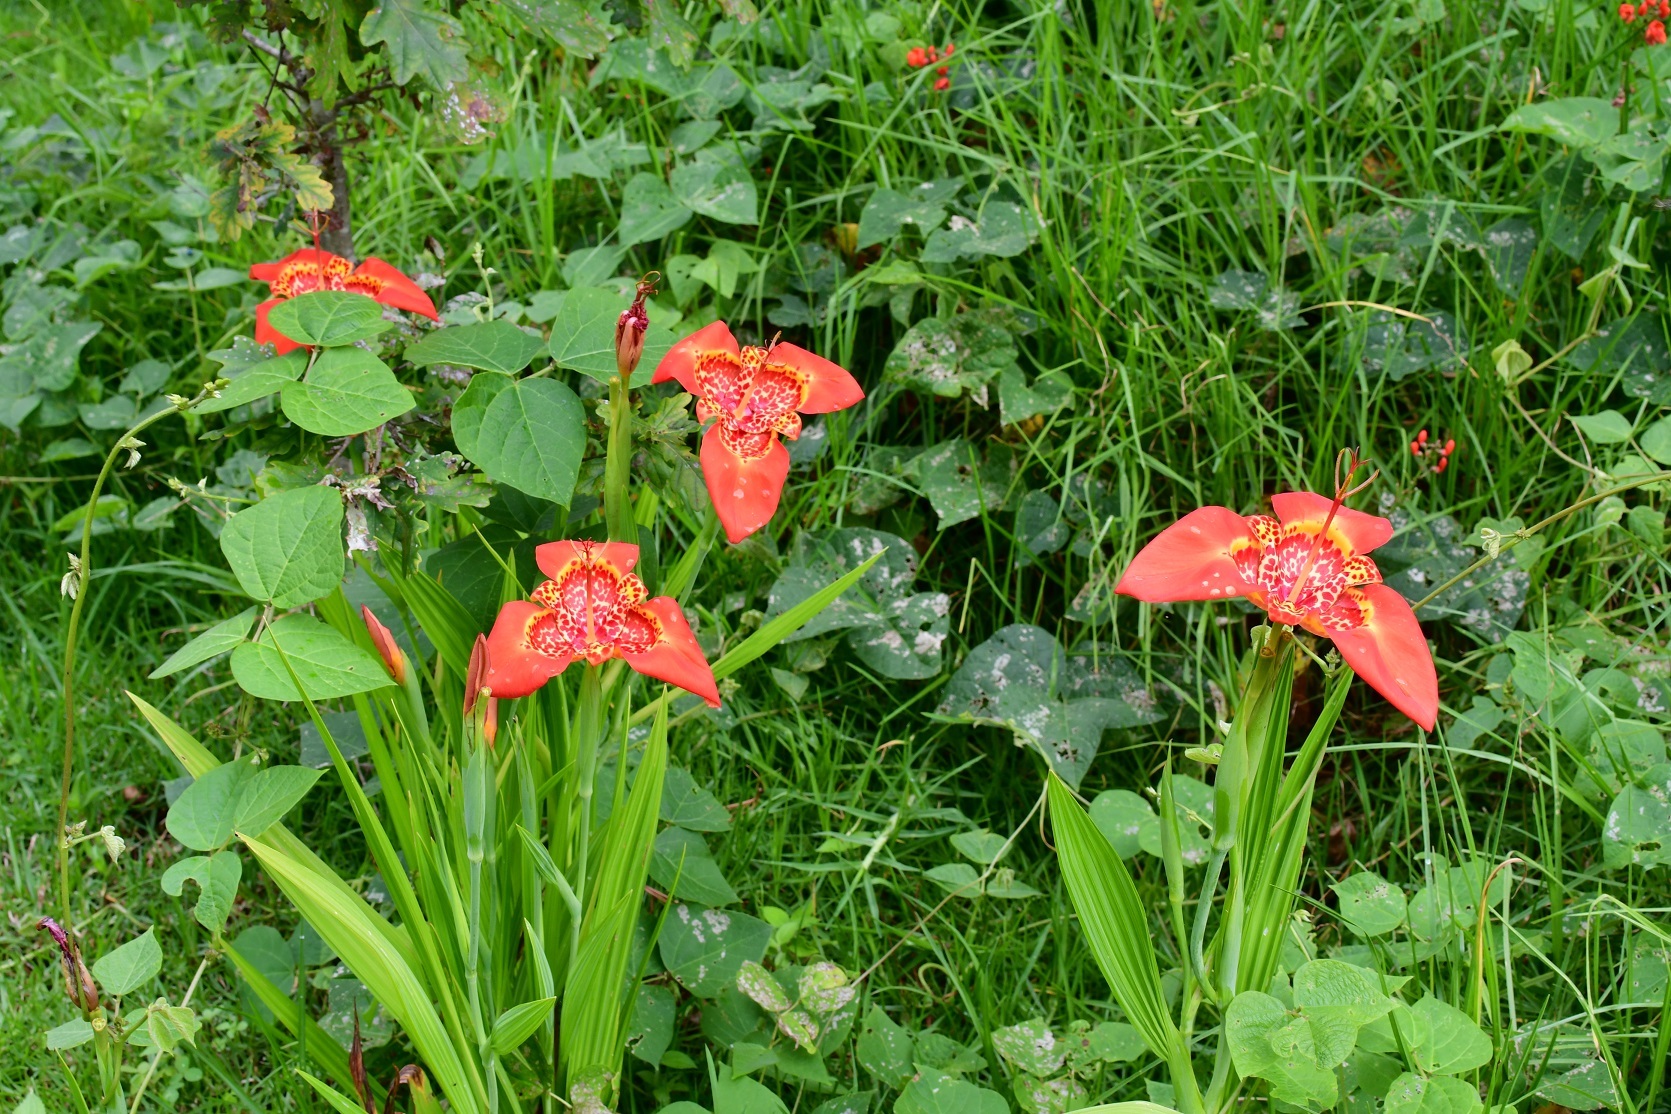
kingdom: Plantae
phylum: Tracheophyta
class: Liliopsida
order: Asparagales
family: Iridaceae
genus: Tigridia
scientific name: Tigridia pavonia
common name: Peacock-flower
